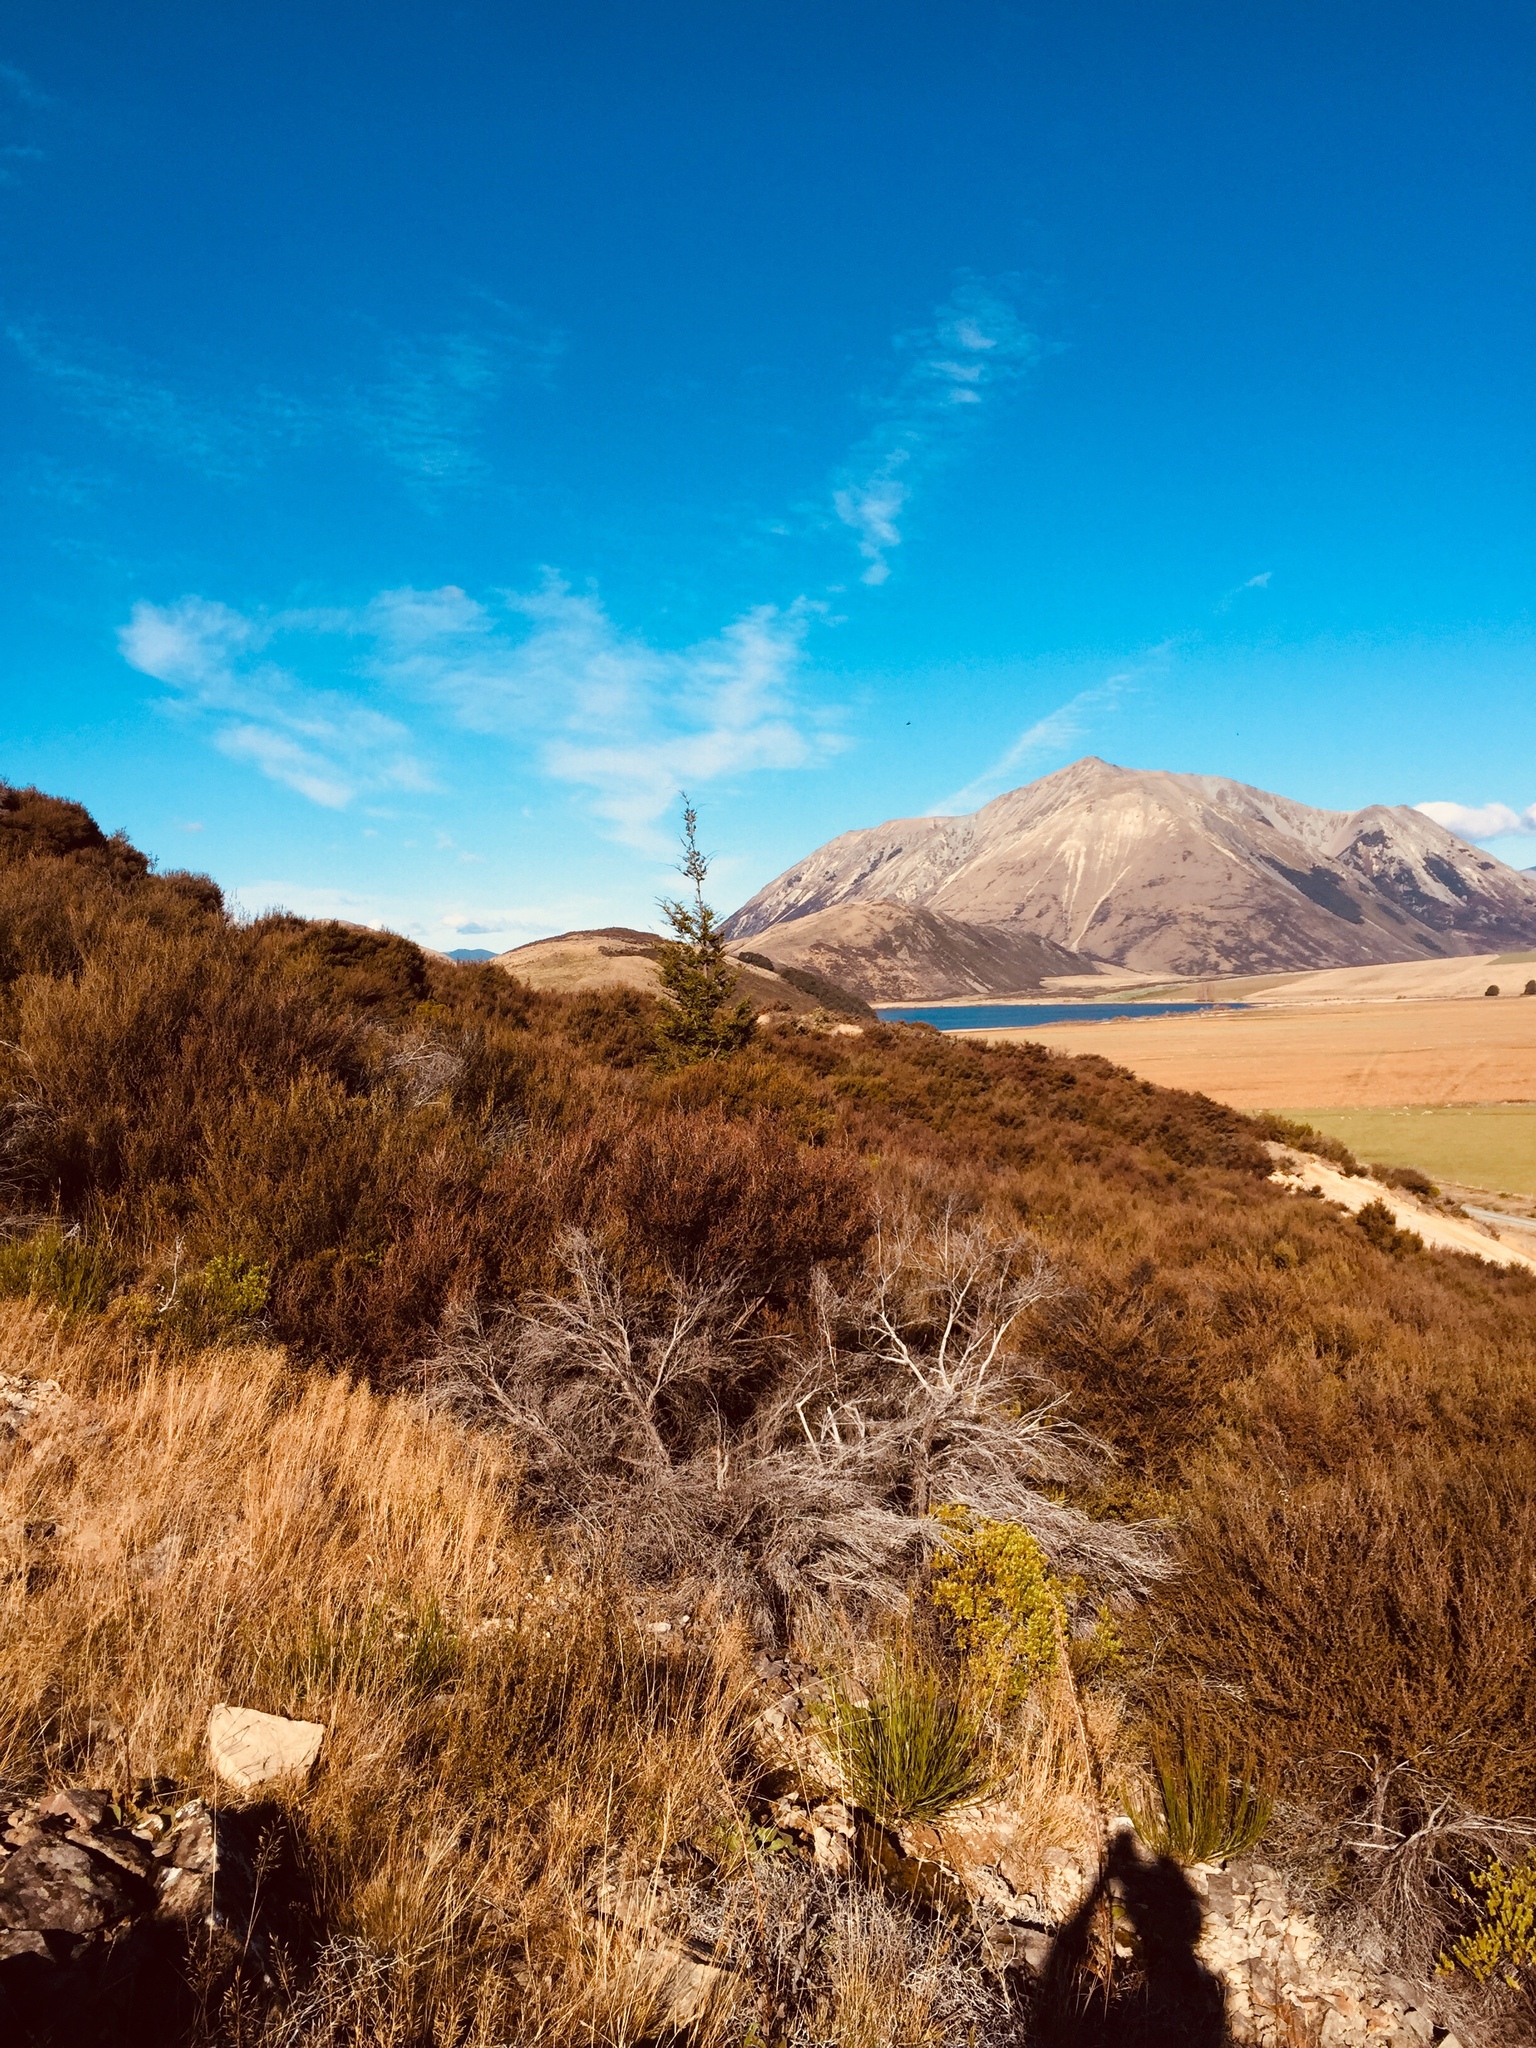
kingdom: Plantae
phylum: Tracheophyta
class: Magnoliopsida
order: Fagales
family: Nothofagaceae
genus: Nothofagus
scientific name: Nothofagus cliffortioides
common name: Mountain beech
